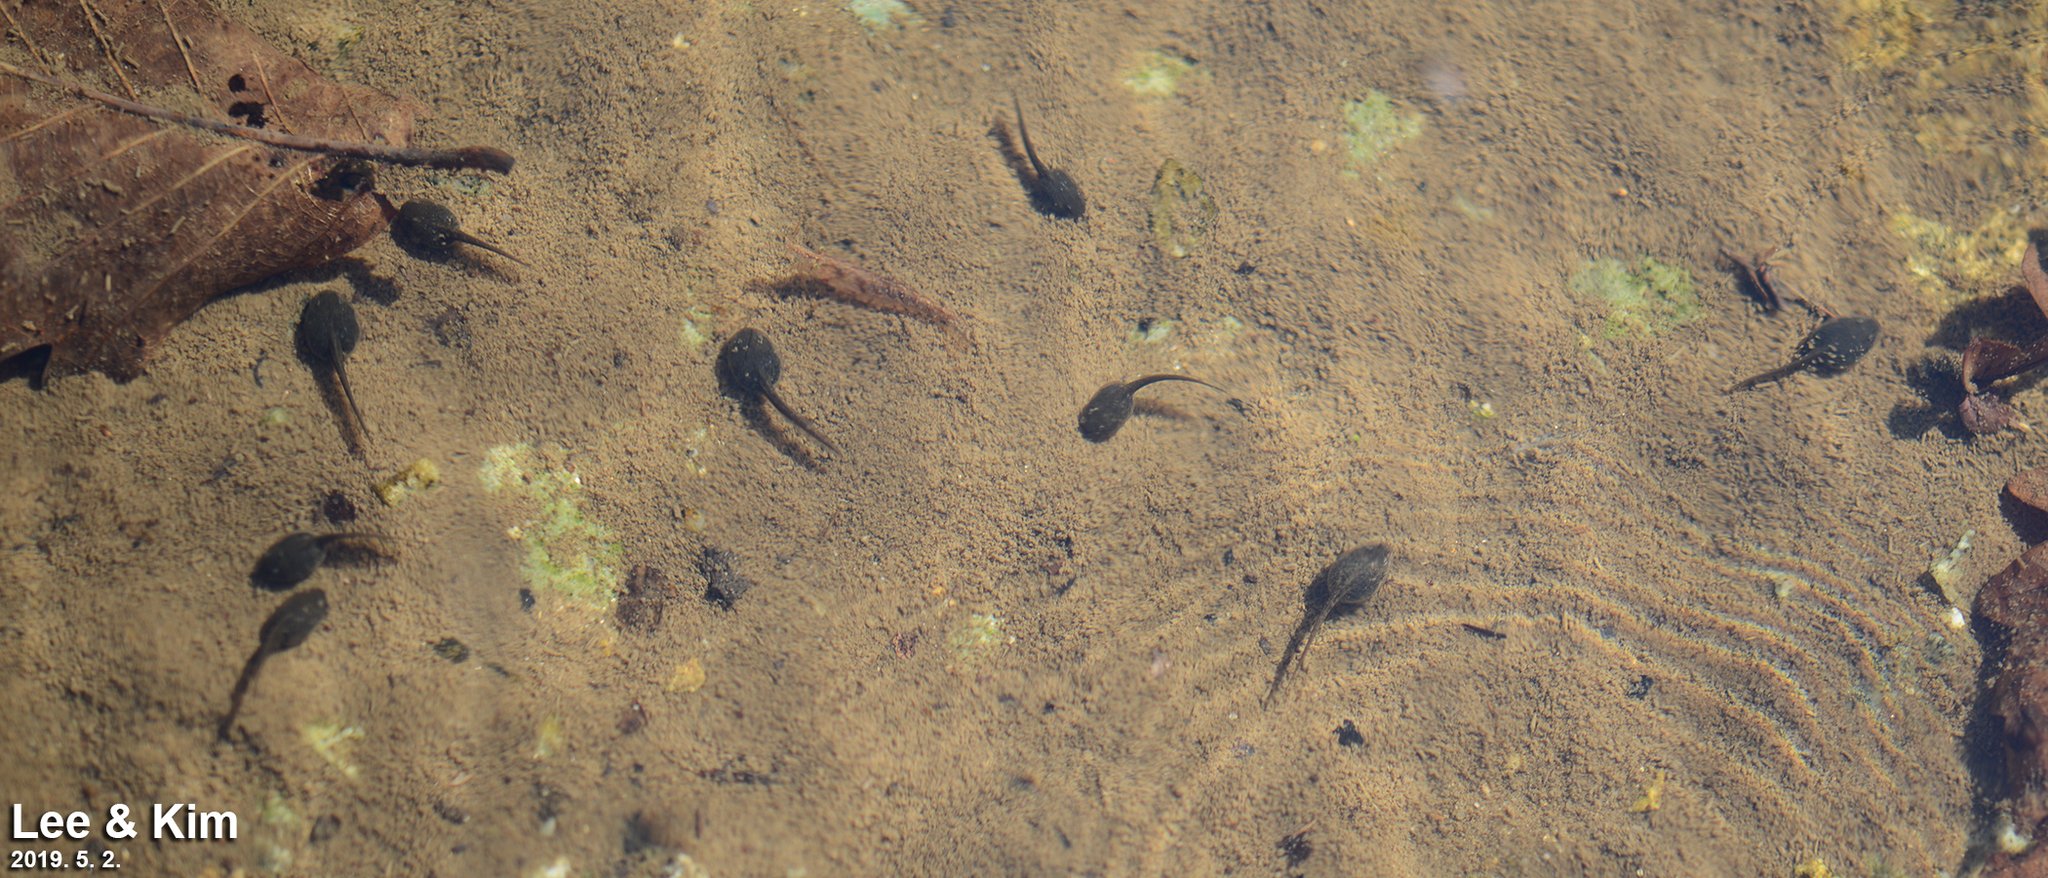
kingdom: Animalia
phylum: Chordata
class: Amphibia
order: Anura
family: Ranidae
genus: Rana
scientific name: Rana huanrenensis
